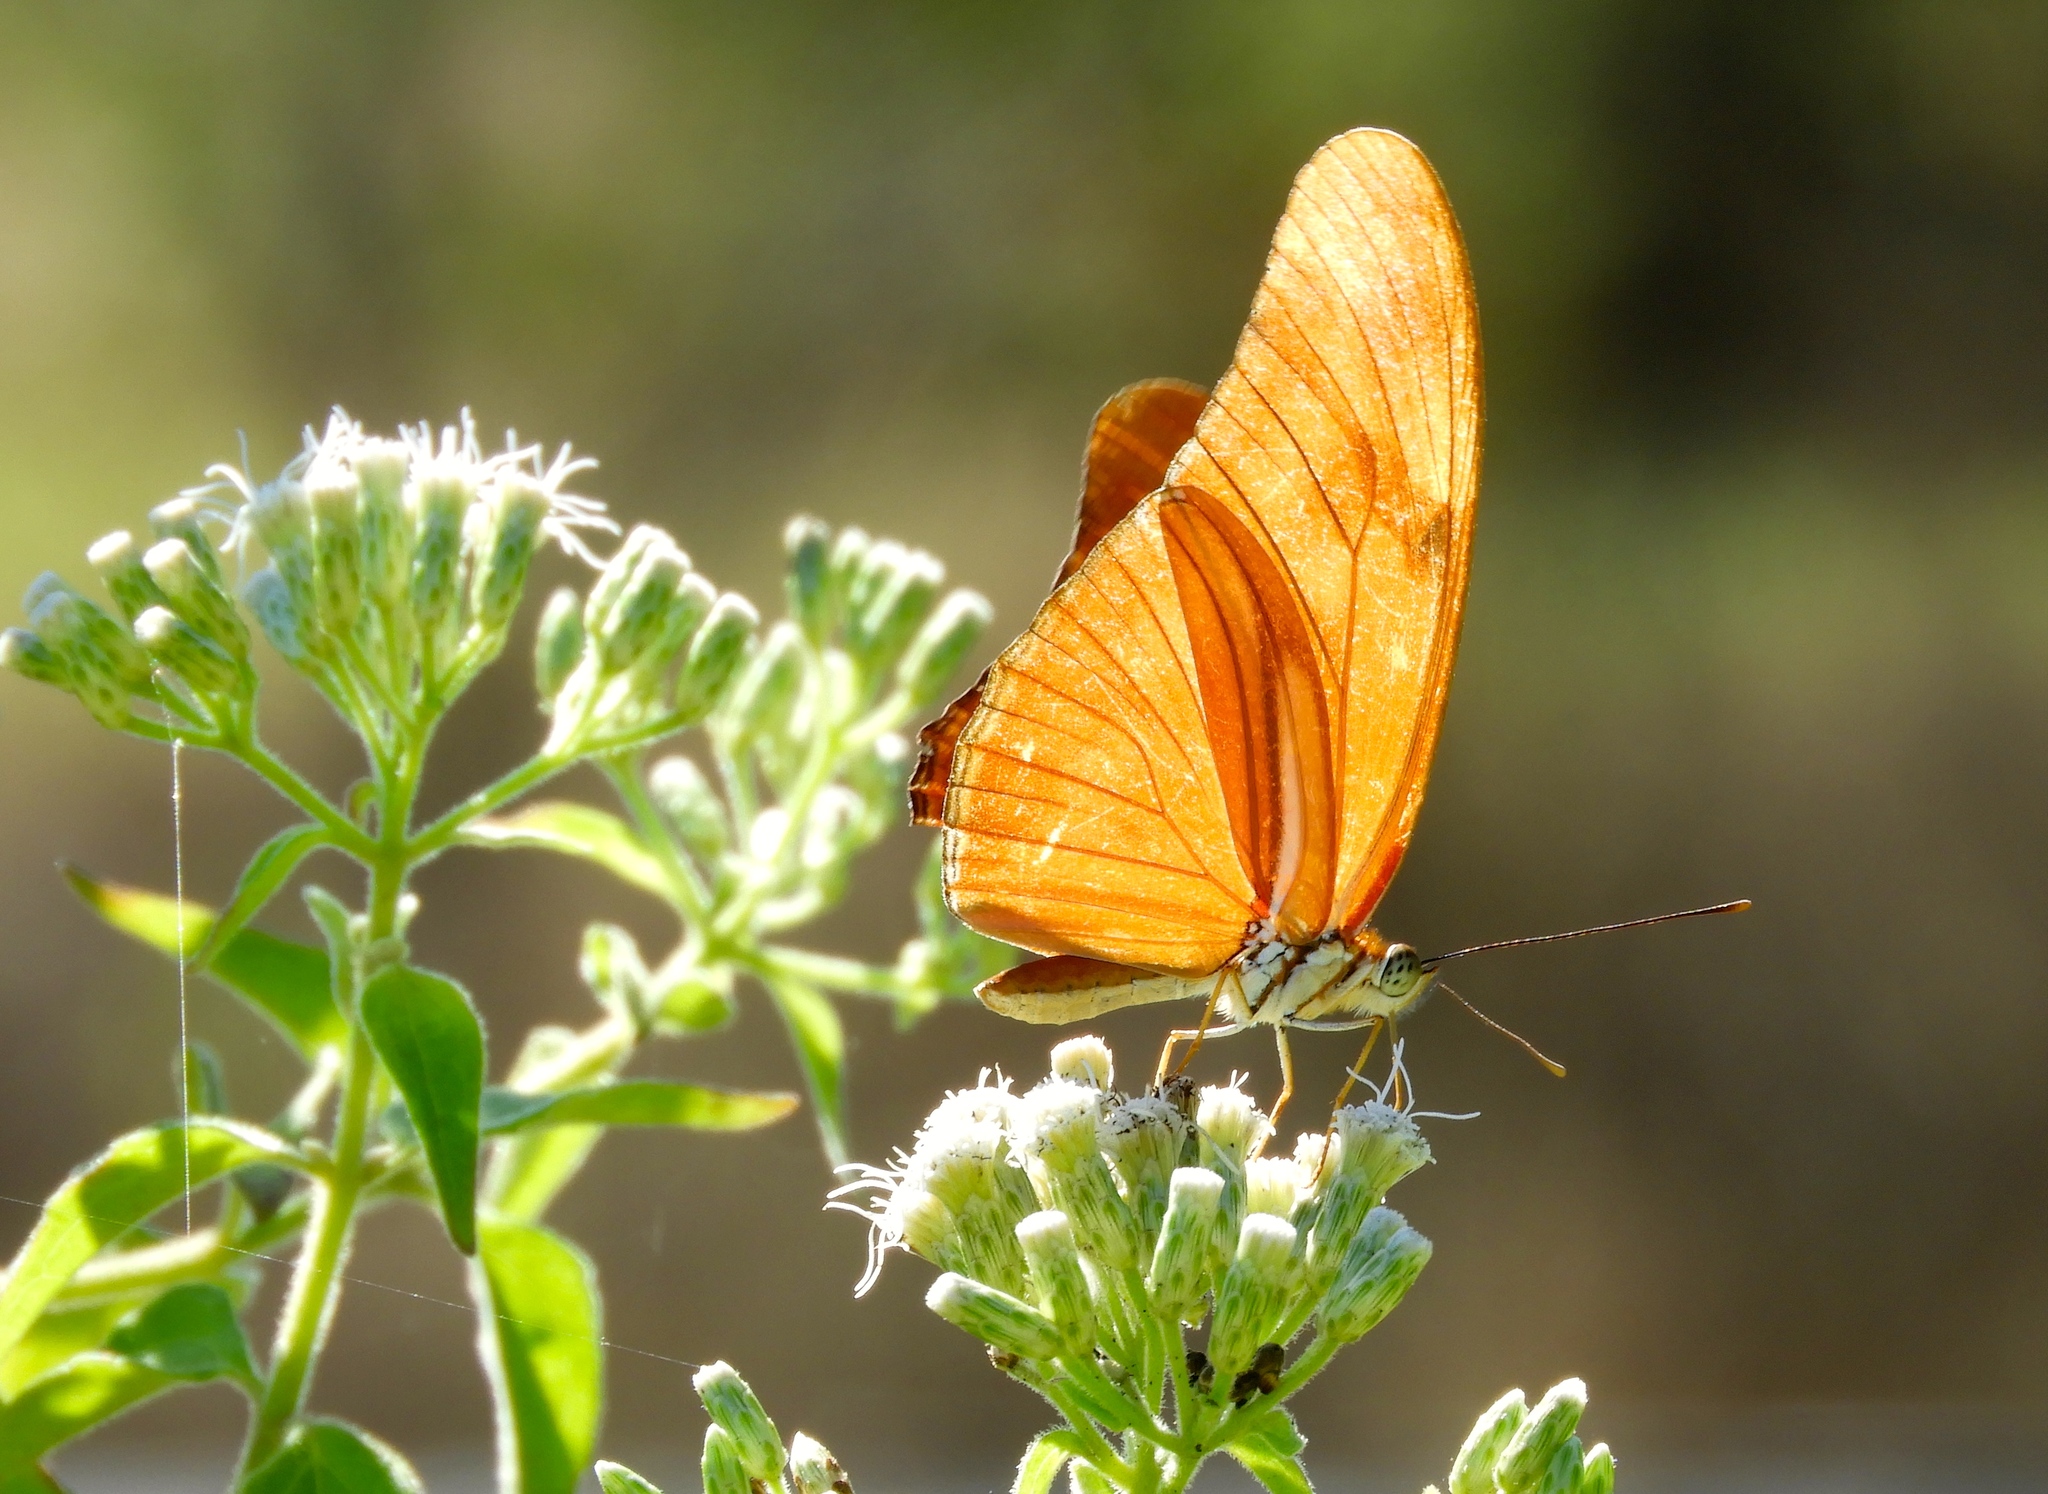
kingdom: Animalia
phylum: Arthropoda
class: Insecta
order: Lepidoptera
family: Nymphalidae
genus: Dryas
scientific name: Dryas iulia
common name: Flambeau
